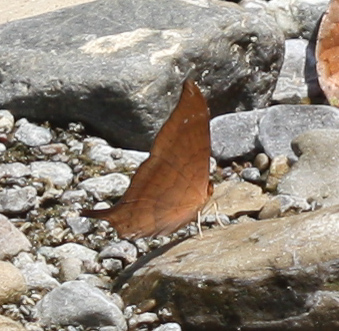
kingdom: Animalia
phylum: Arthropoda
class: Insecta
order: Lepidoptera
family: Nymphalidae
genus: Marpesia
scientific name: Marpesia furcula
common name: Sunset daggerwing
